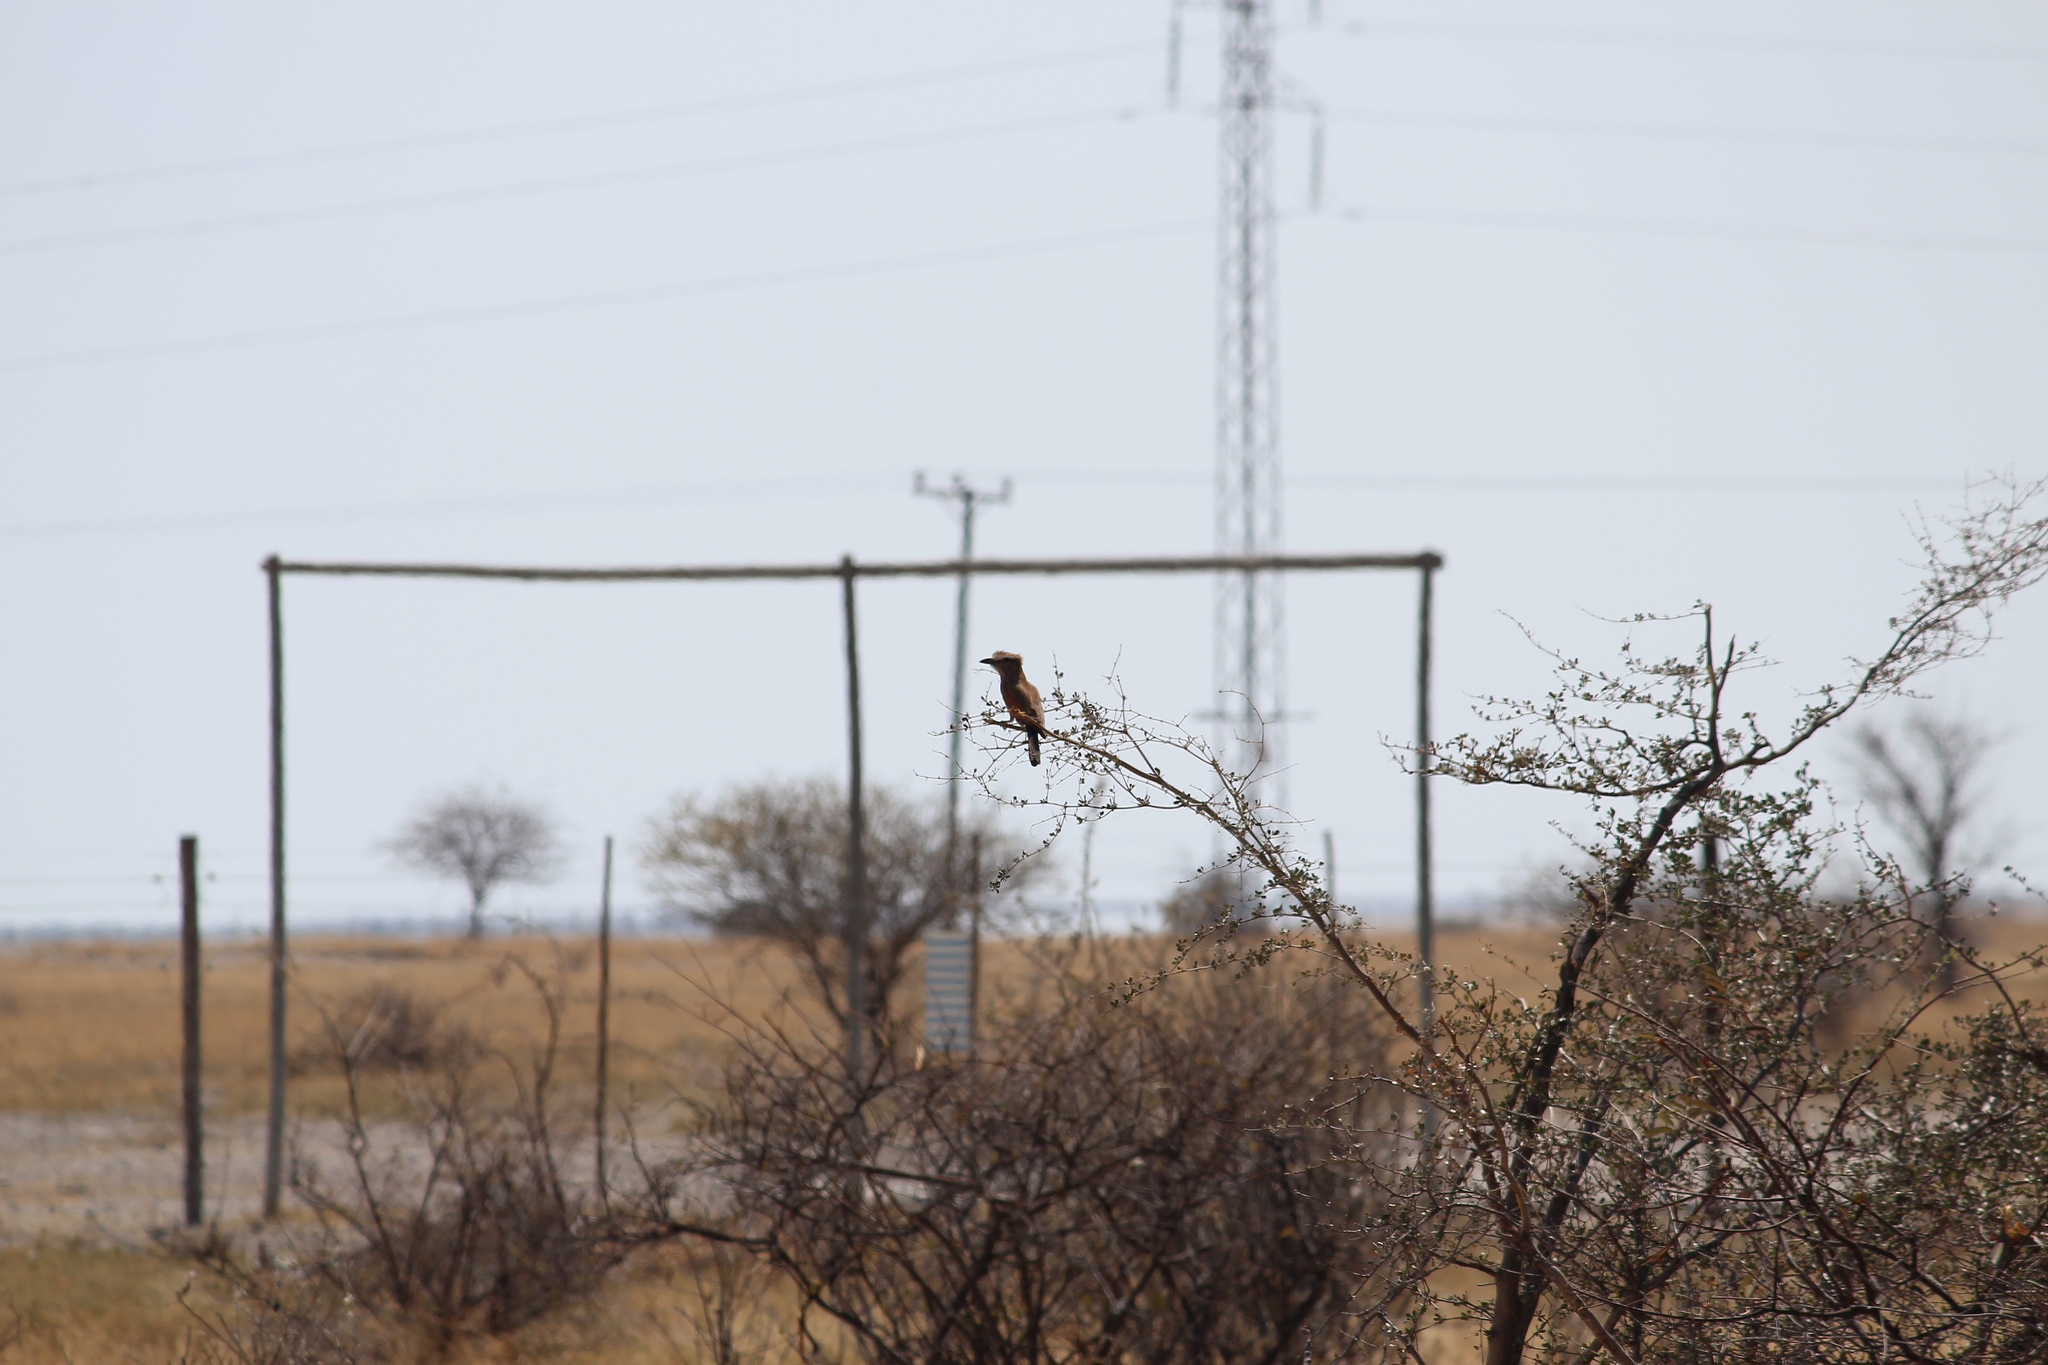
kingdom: Animalia
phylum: Chordata
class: Aves
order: Coraciiformes
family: Coraciidae
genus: Coracias
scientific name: Coracias naevius
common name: Purple roller
